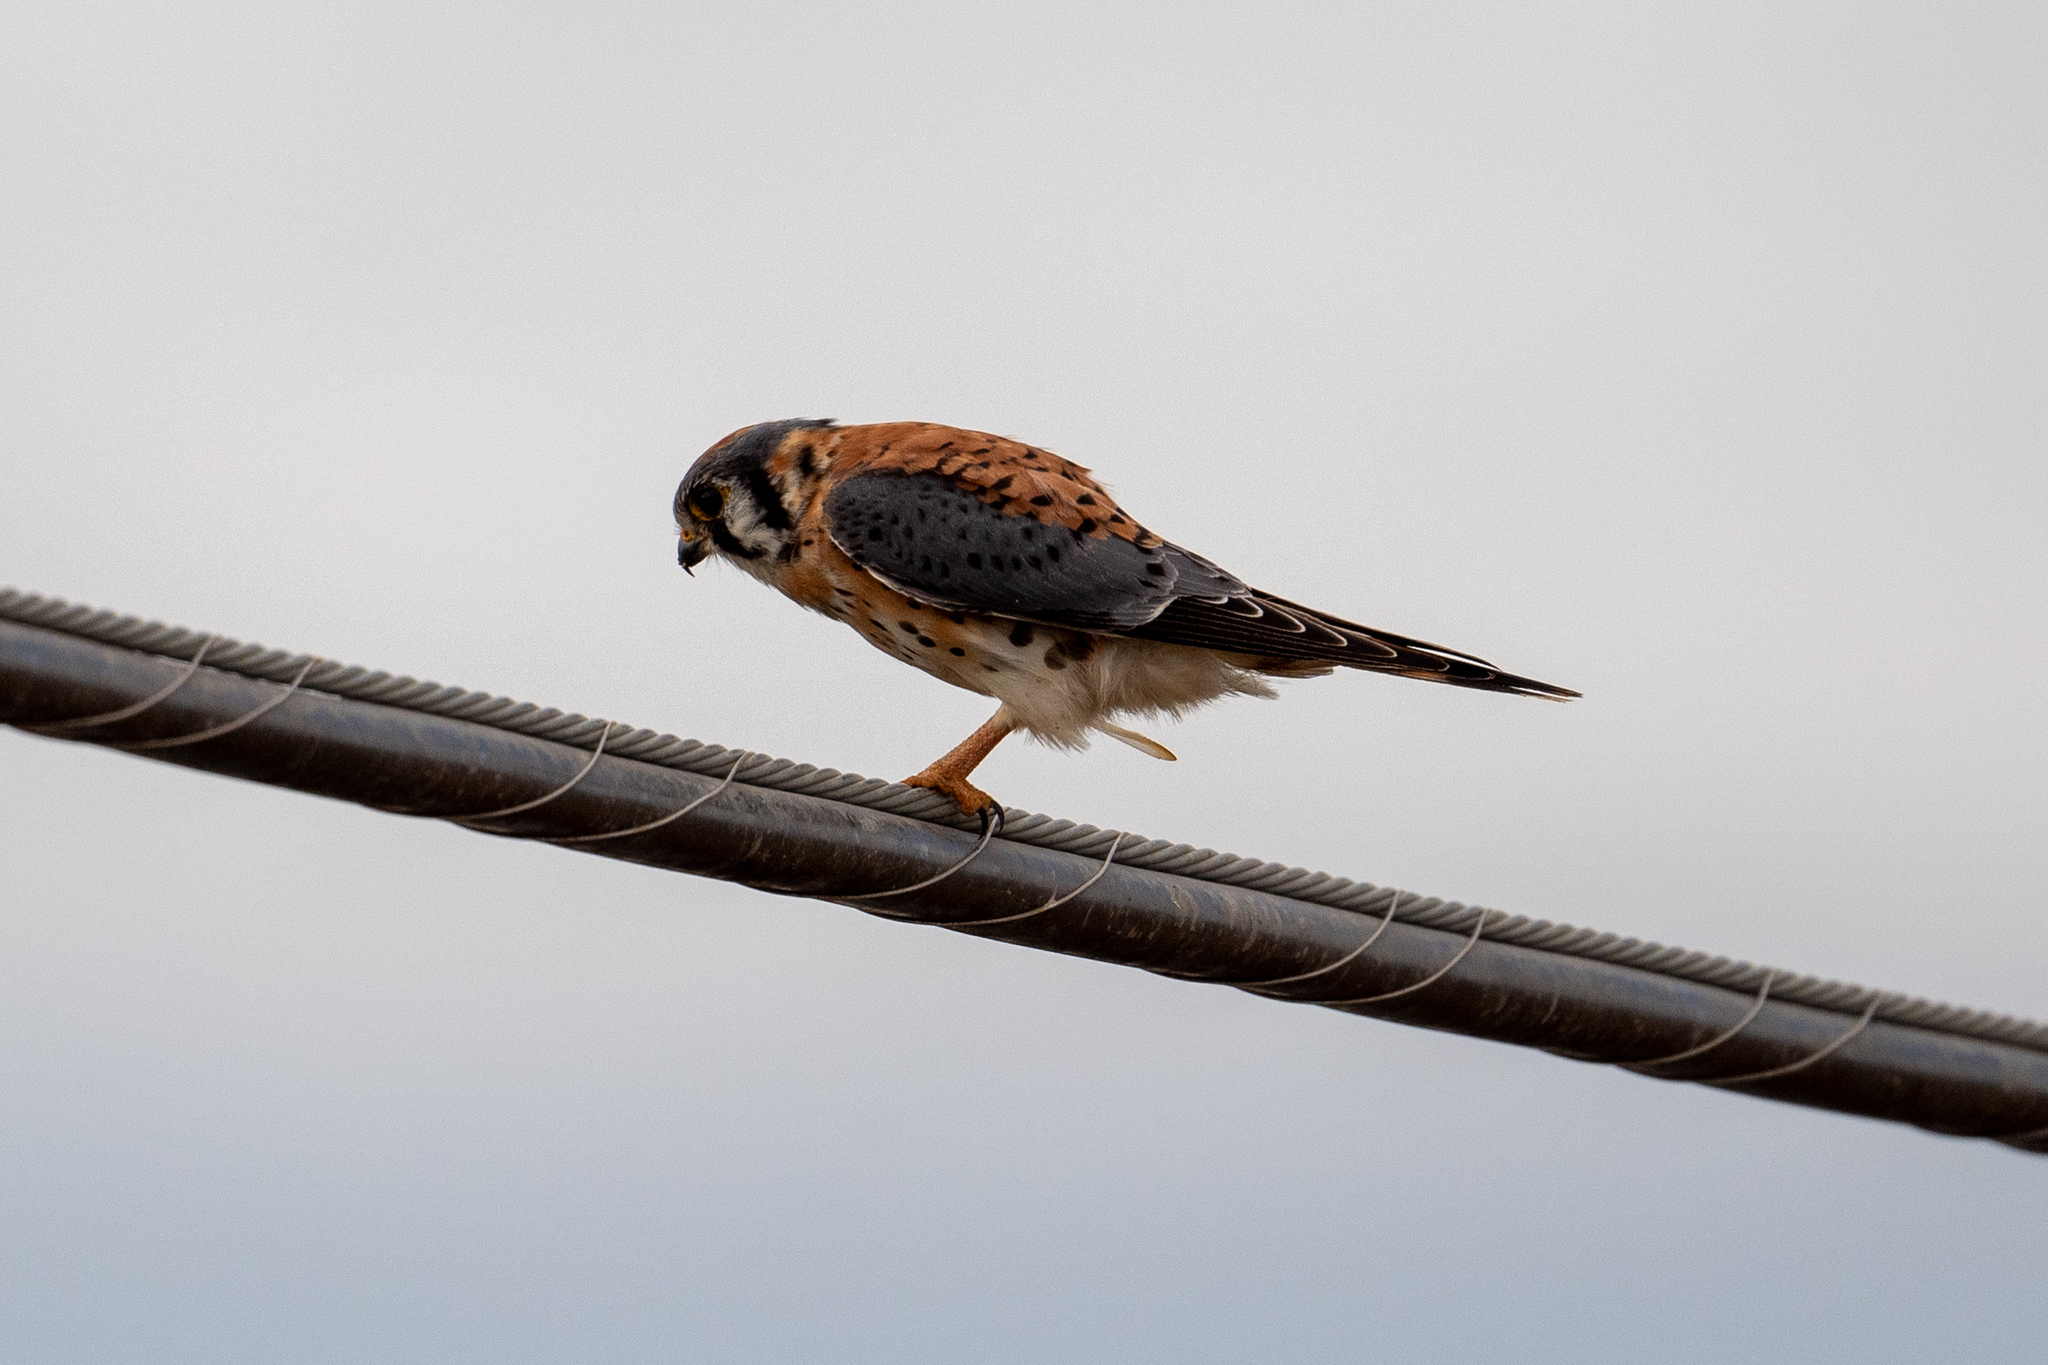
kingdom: Animalia
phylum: Chordata
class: Aves
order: Falconiformes
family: Falconidae
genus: Falco
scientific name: Falco sparverius
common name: American kestrel
